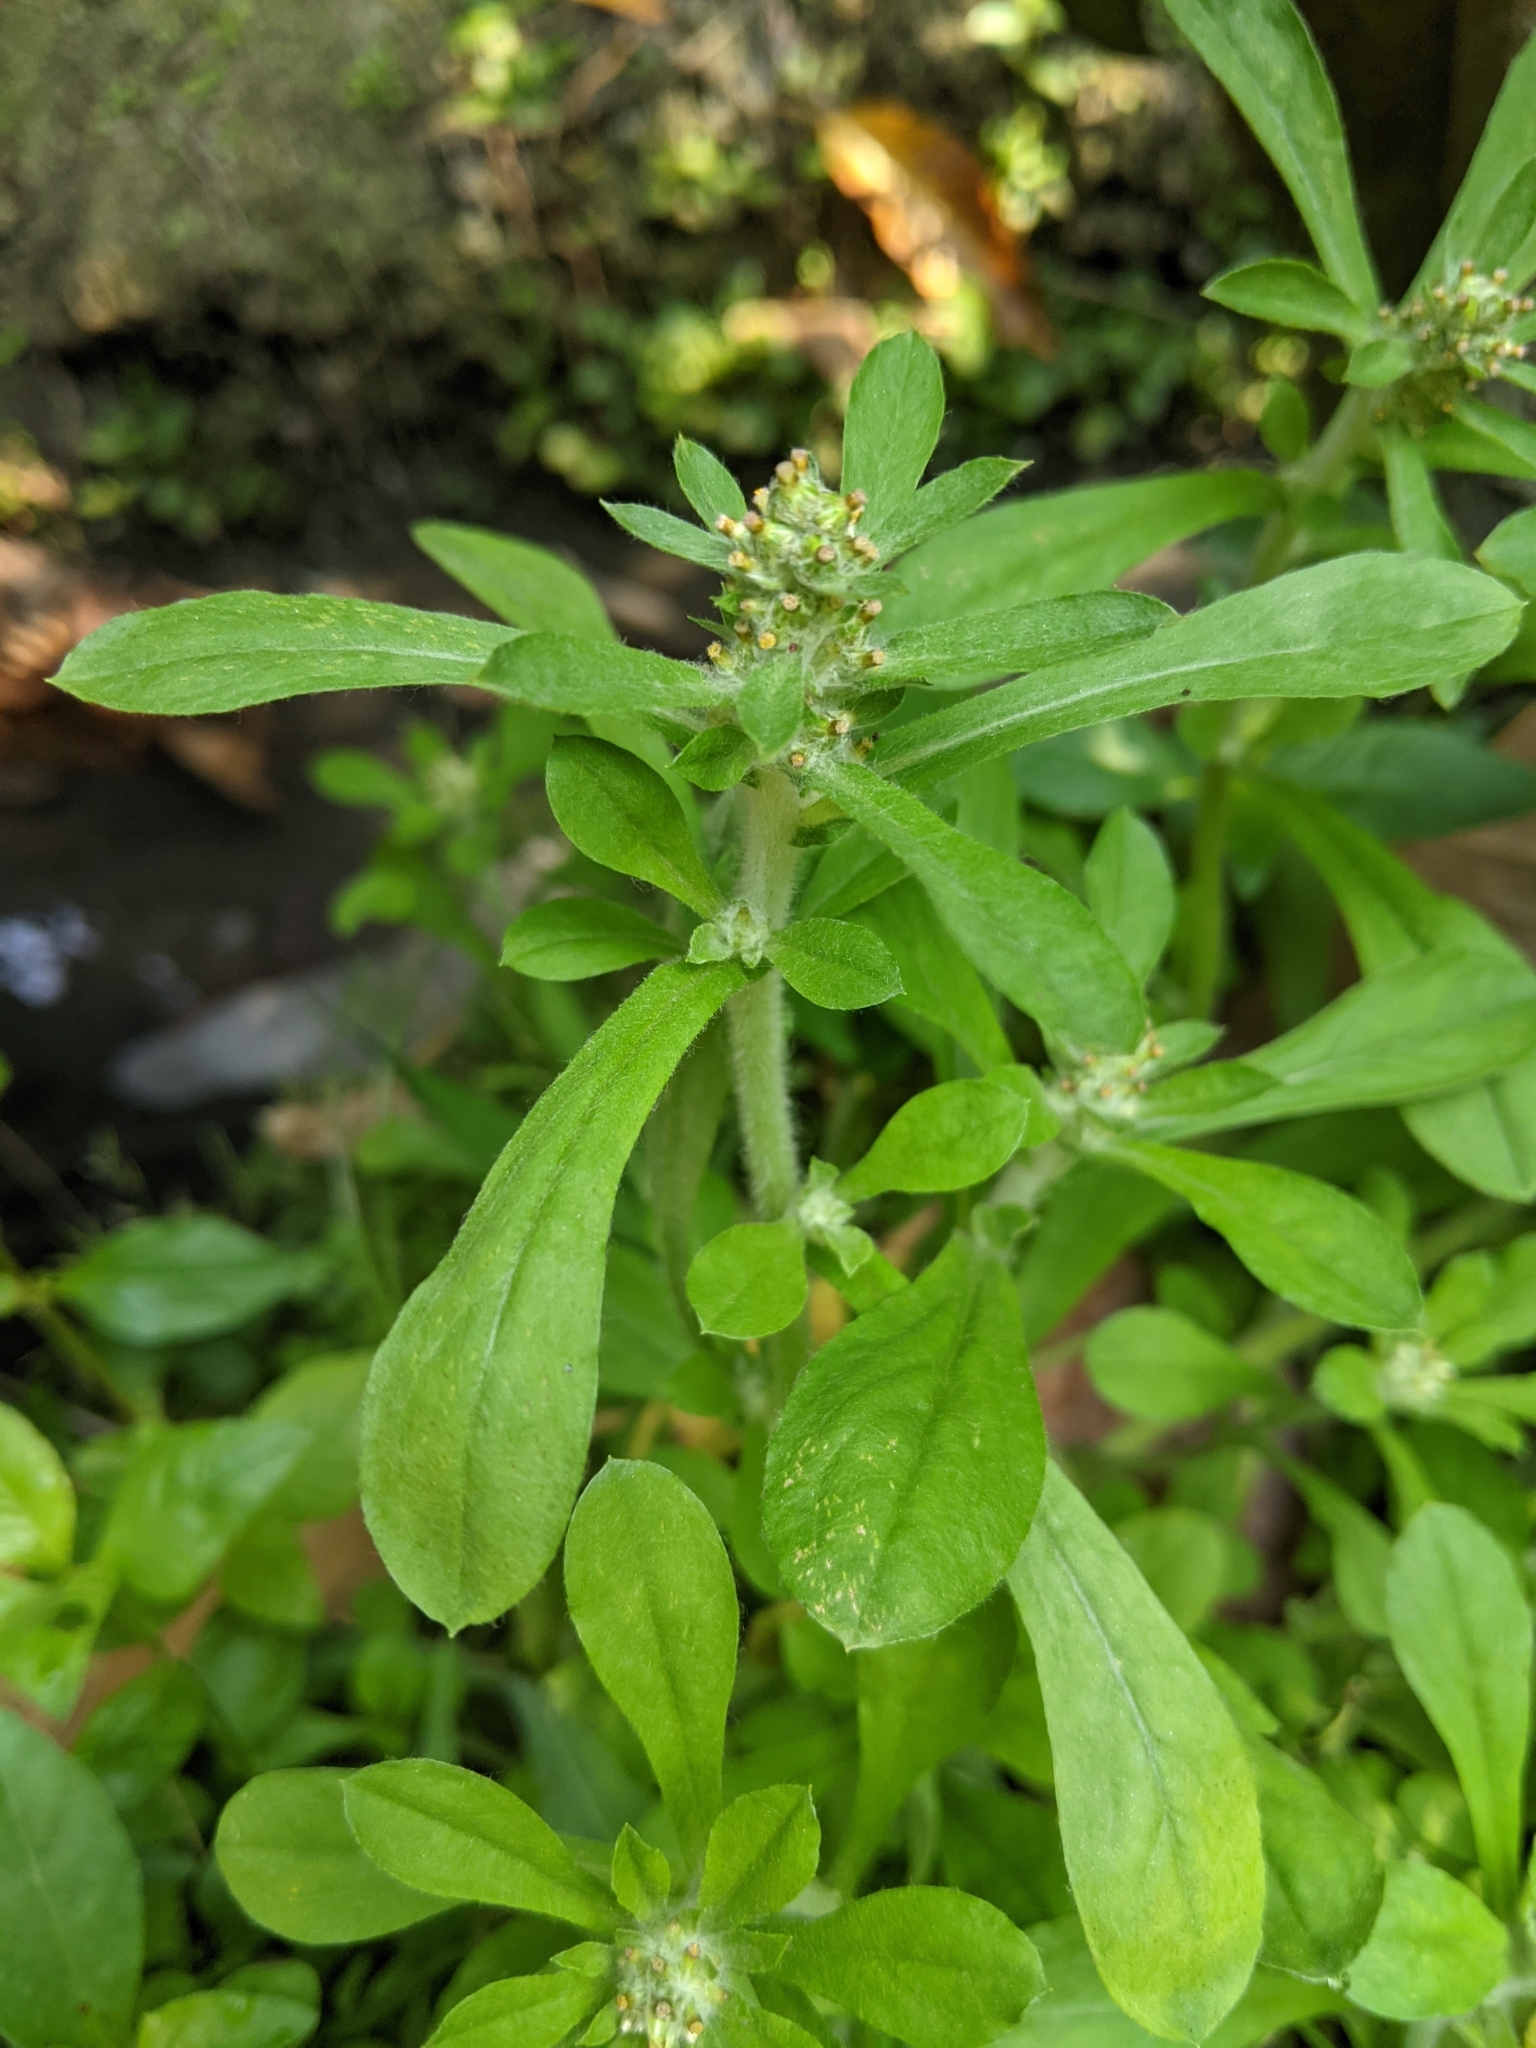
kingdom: Plantae
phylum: Tracheophyta
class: Magnoliopsida
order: Asterales
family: Asteraceae
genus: Gamochaeta
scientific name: Gamochaeta pensylvanica
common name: Pennsylvania everlasting
